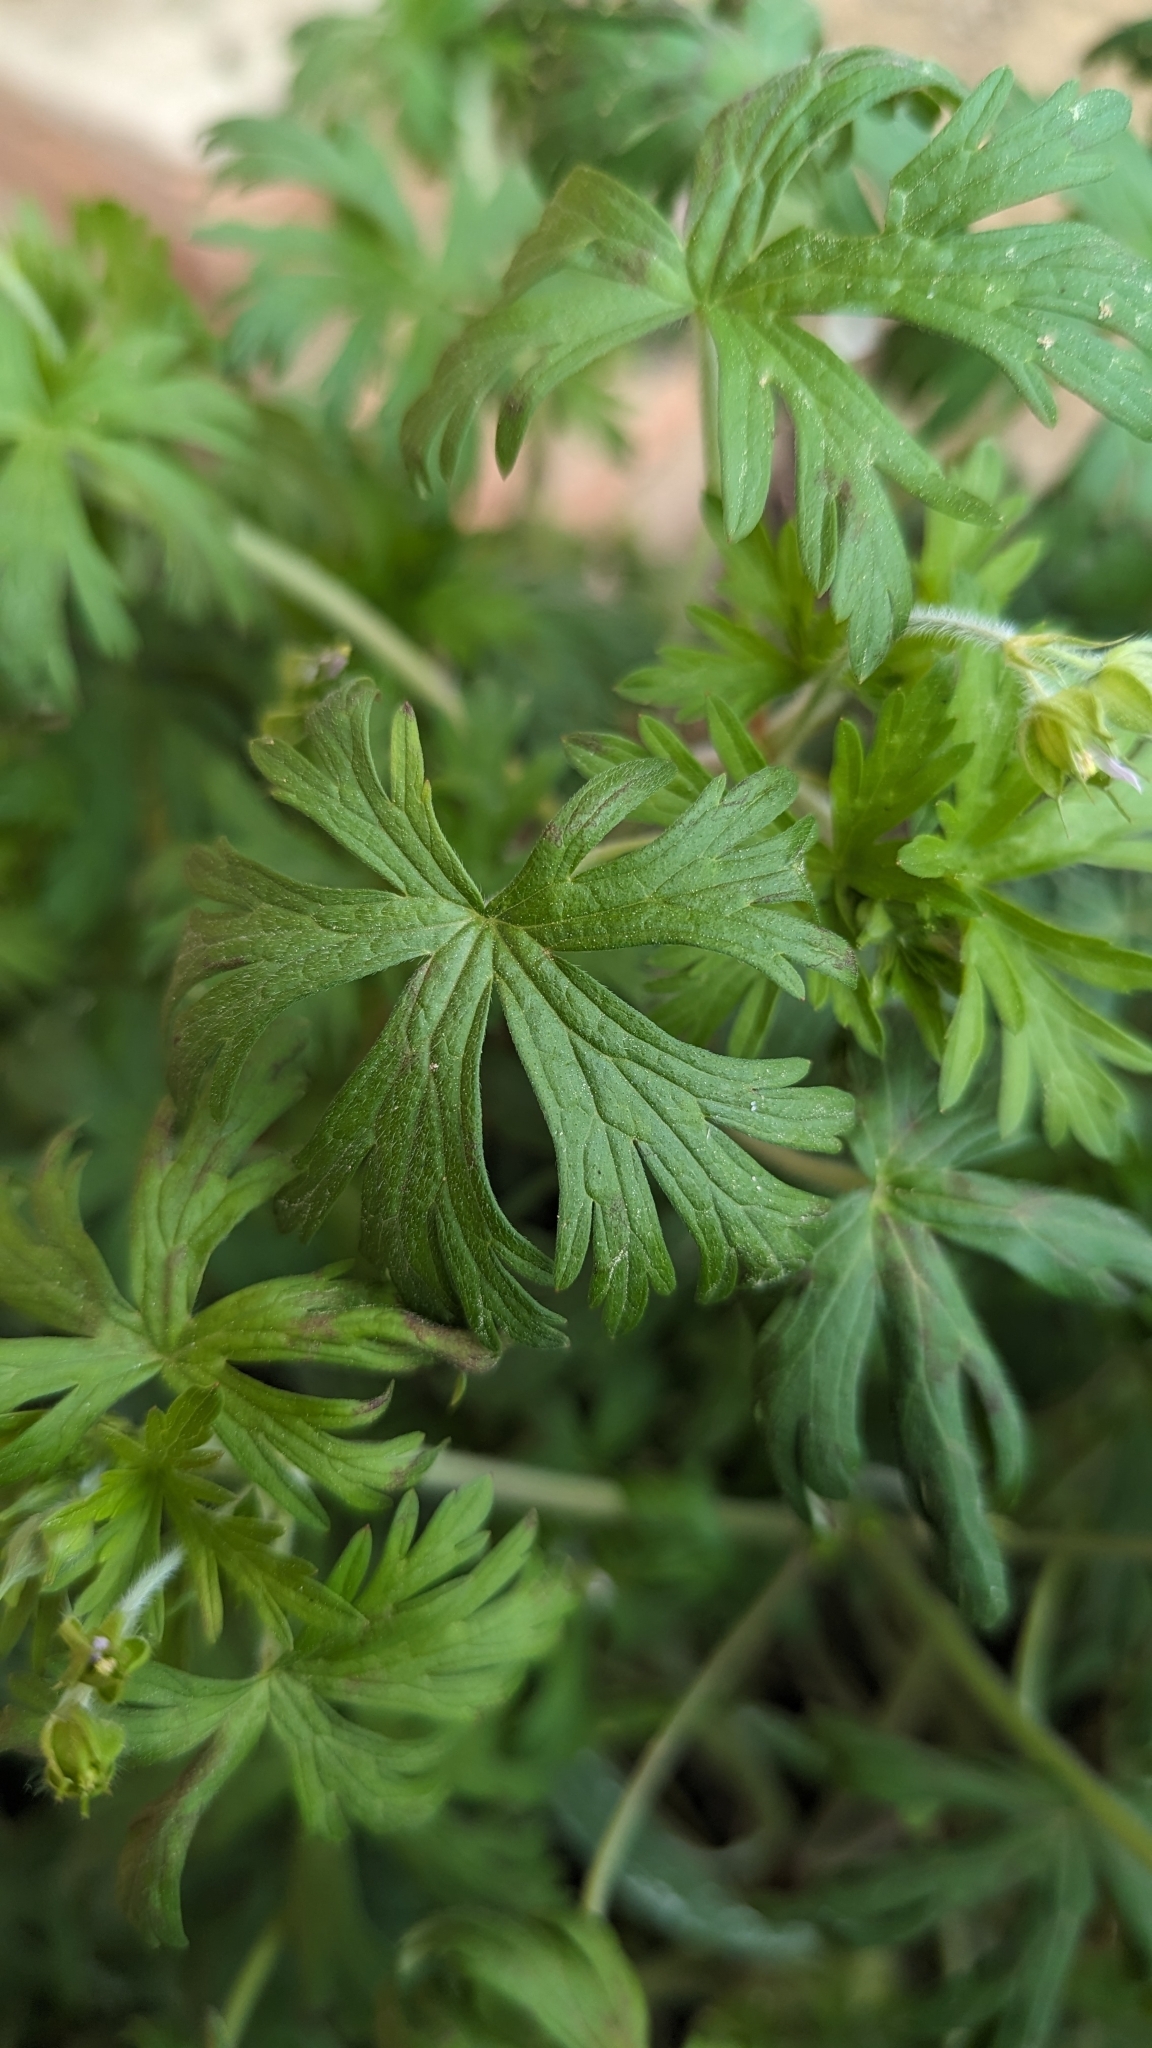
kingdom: Plantae
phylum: Tracheophyta
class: Magnoliopsida
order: Geraniales
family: Geraniaceae
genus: Geranium
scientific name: Geranium carolinianum
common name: Carolina crane's-bill
